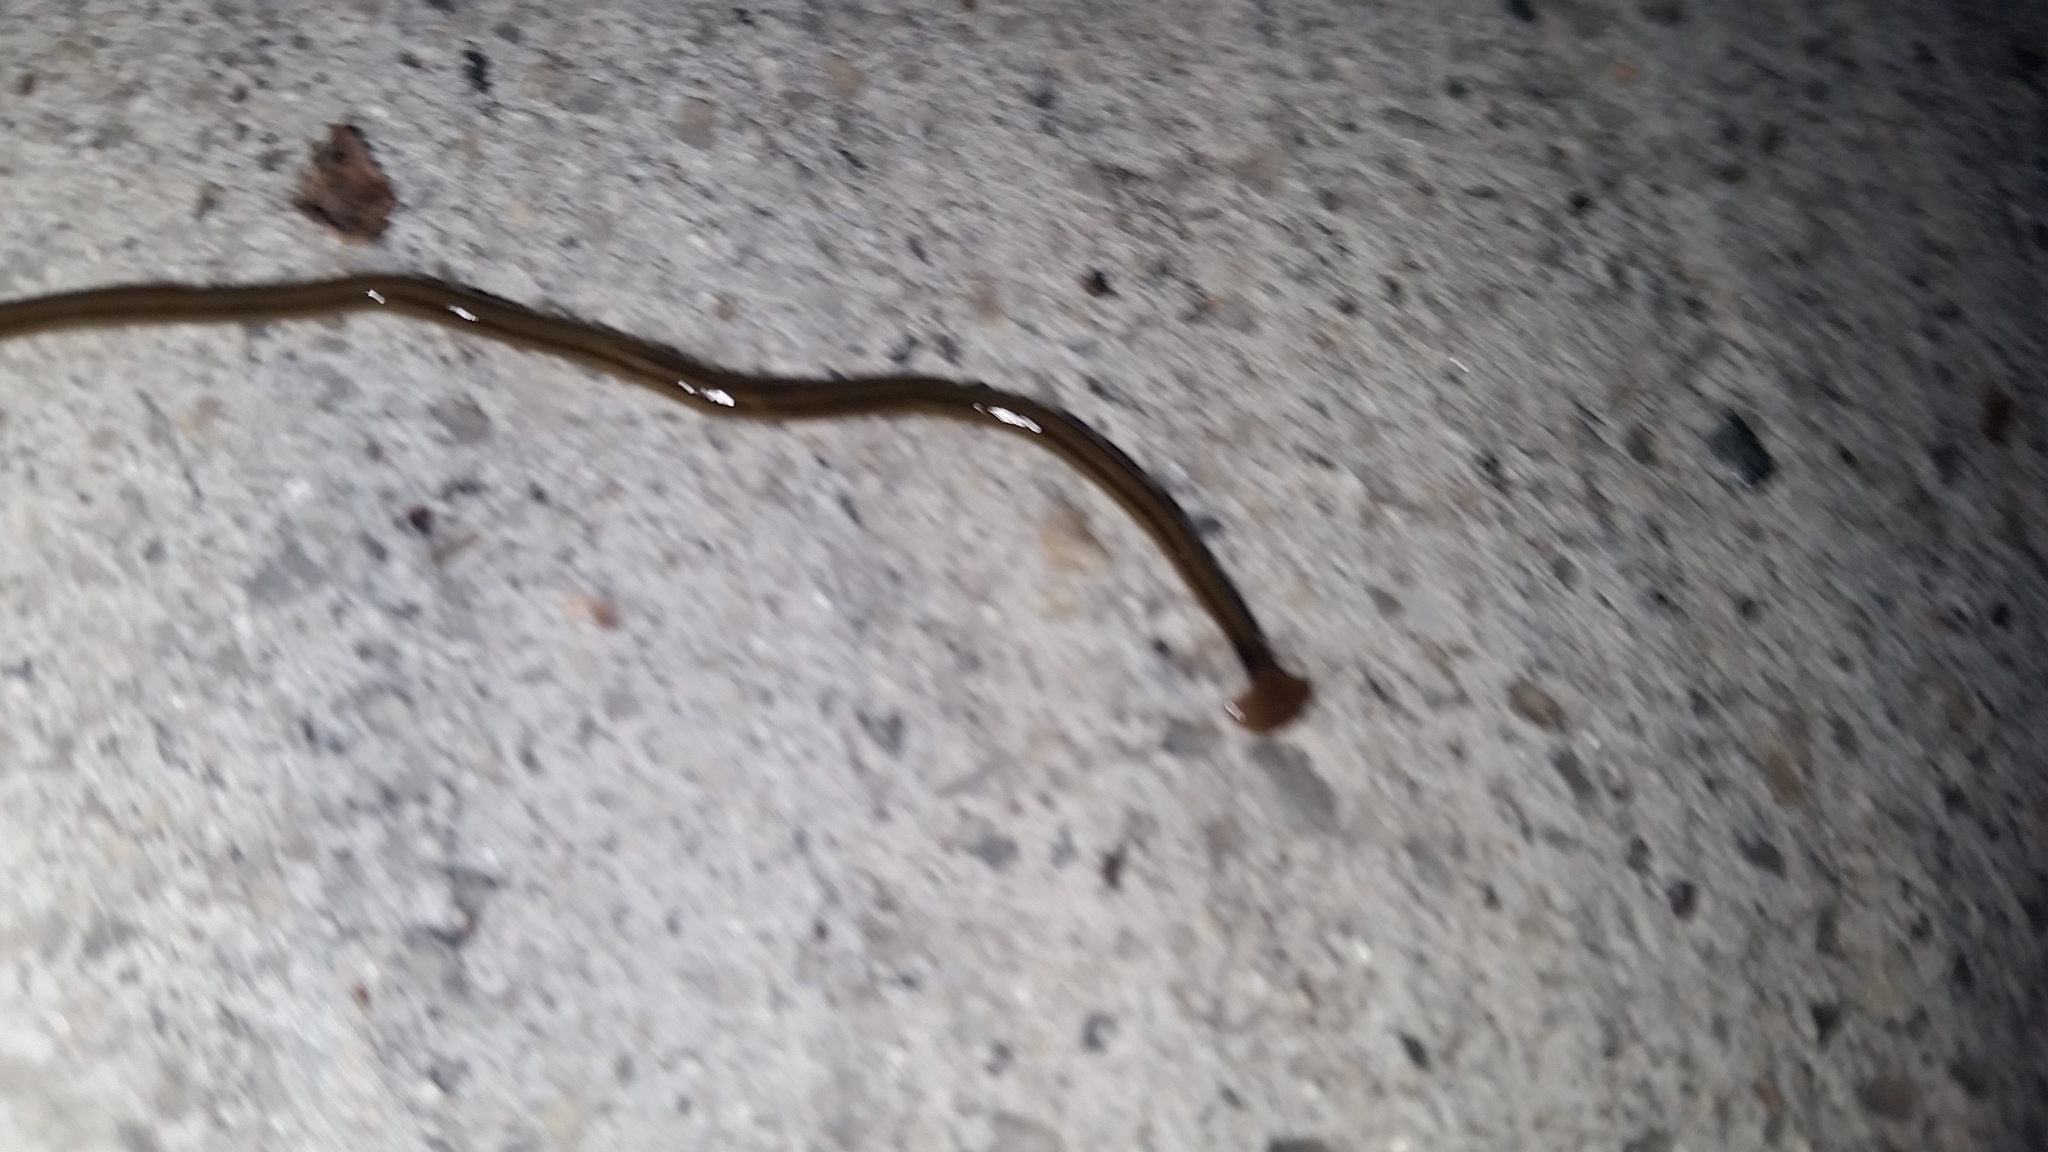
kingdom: Animalia
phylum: Platyhelminthes
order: Tricladida
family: Geoplanidae
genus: Bipalium
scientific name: Bipalium kewense
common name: Hammerhead flatworm
